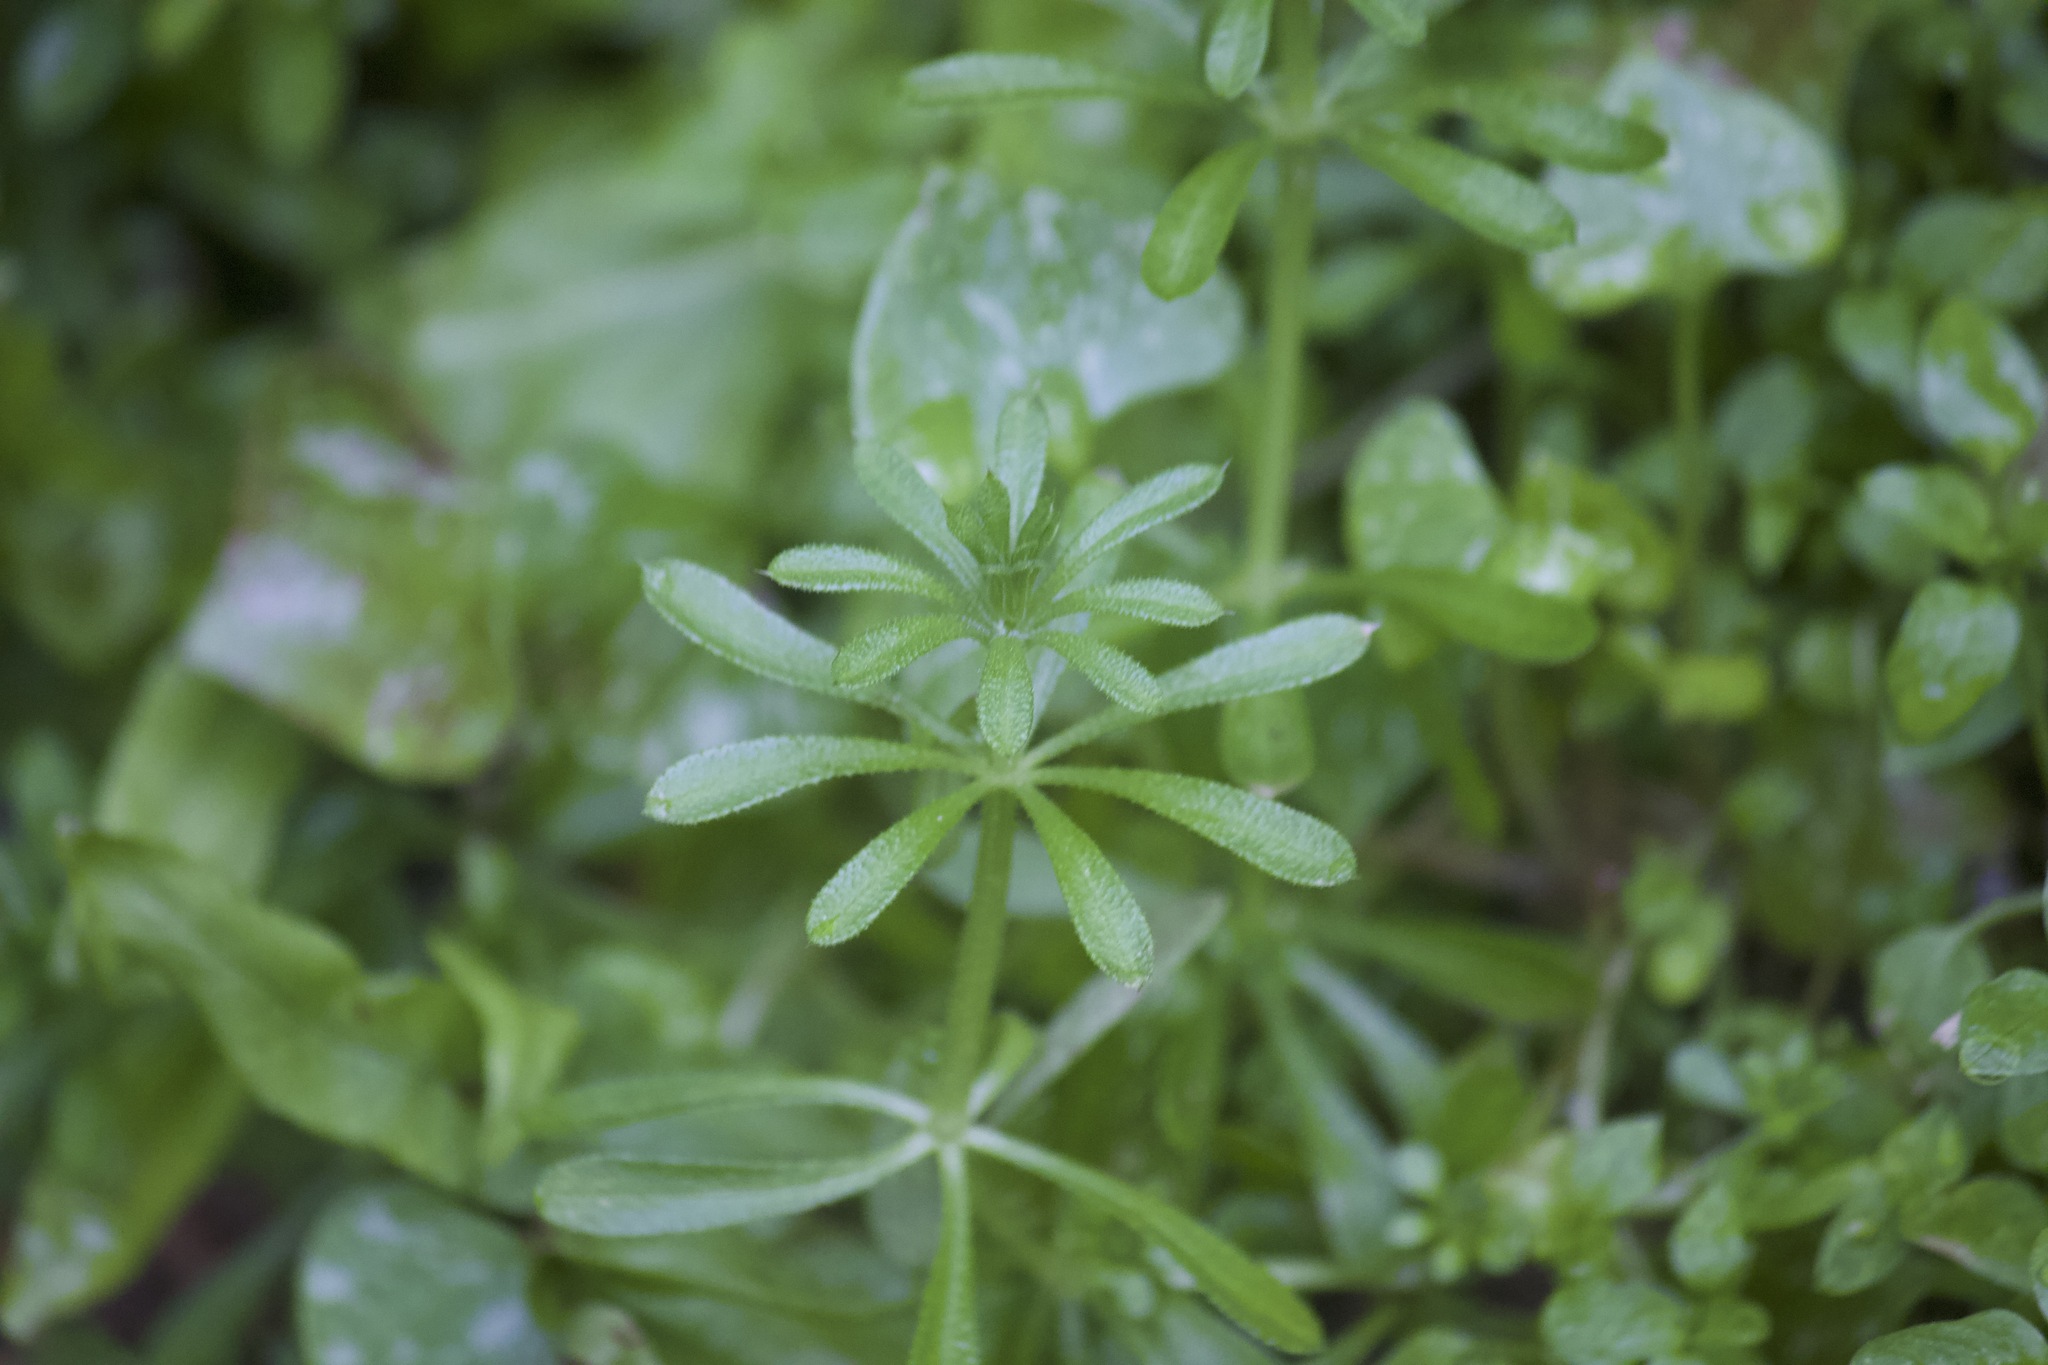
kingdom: Plantae
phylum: Tracheophyta
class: Magnoliopsida
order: Gentianales
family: Rubiaceae
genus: Galium
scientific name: Galium aparine
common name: Cleavers
